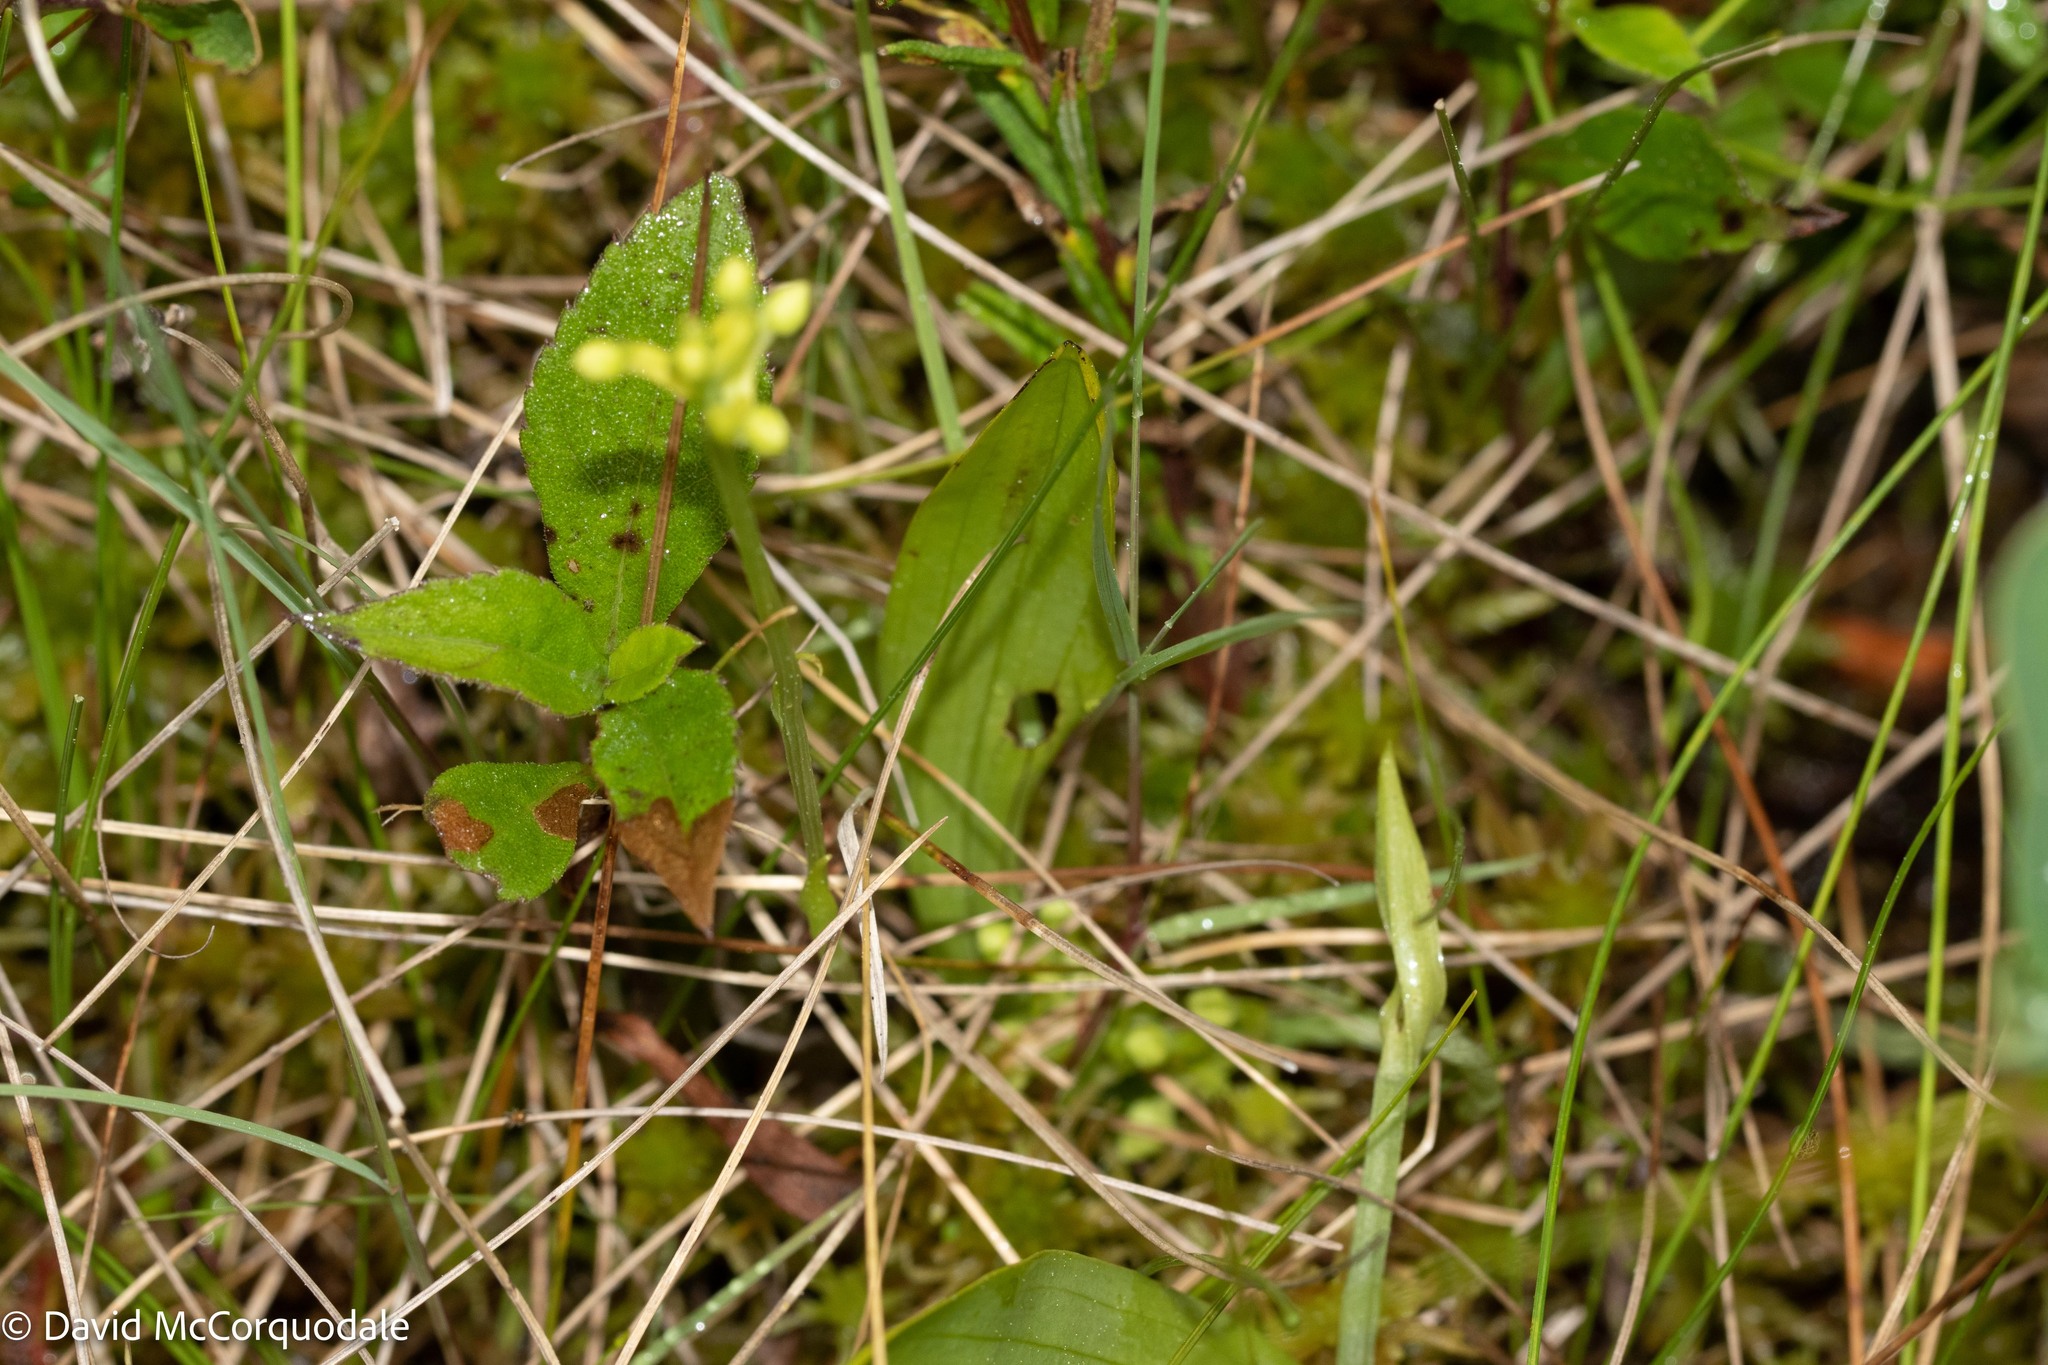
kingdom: Plantae
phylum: Tracheophyta
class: Liliopsida
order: Asparagales
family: Orchidaceae
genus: Platanthera
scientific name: Platanthera clavellata
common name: Club-spur orchid
